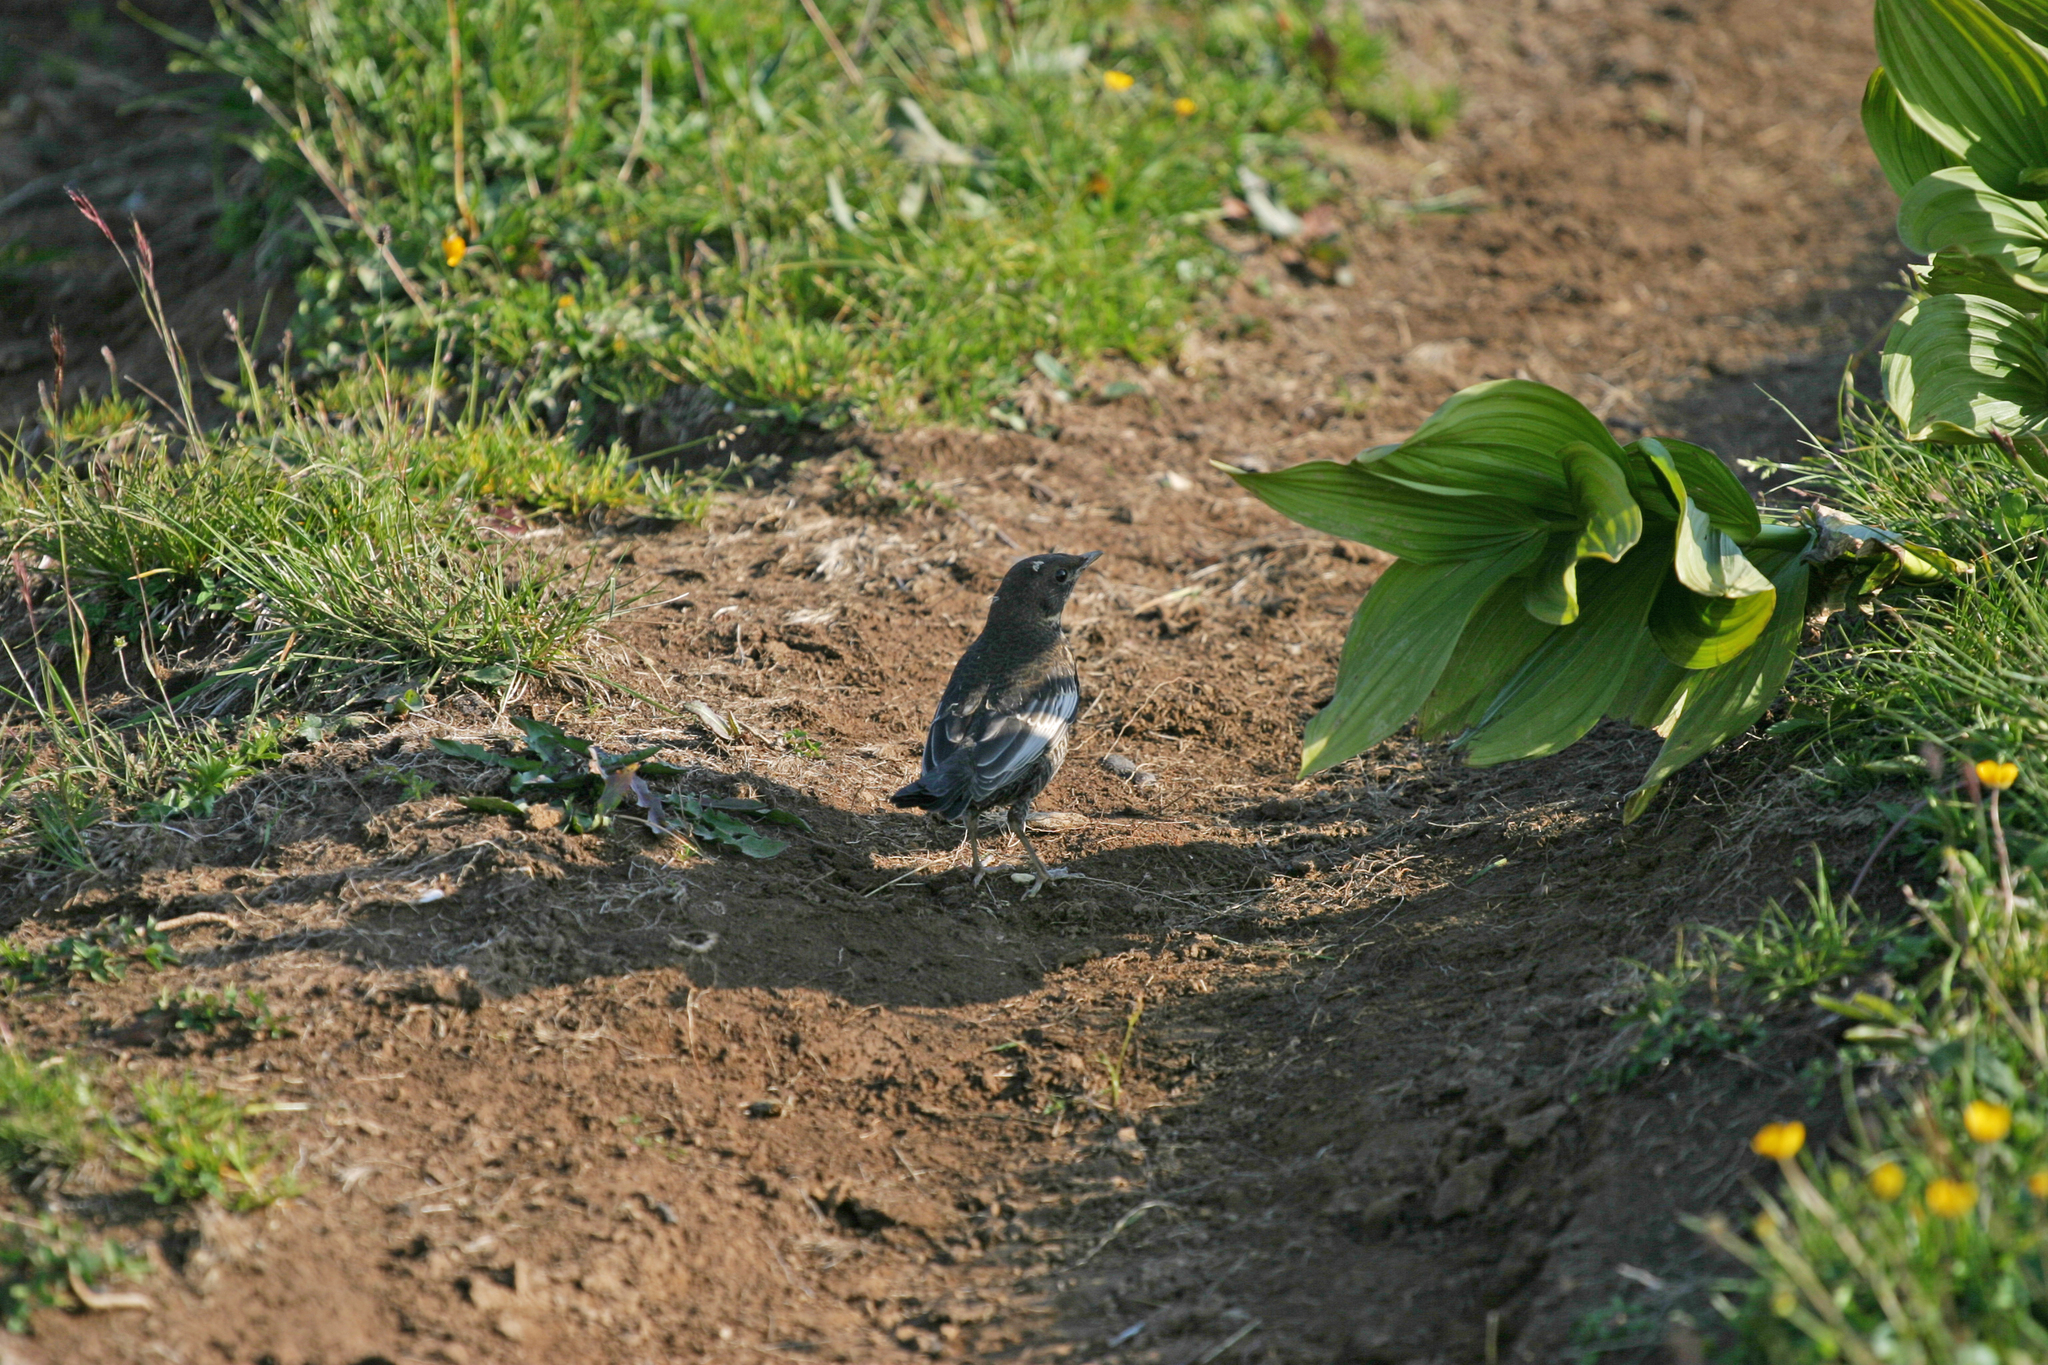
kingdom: Animalia
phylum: Chordata
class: Aves
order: Passeriformes
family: Turdidae
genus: Turdus
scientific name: Turdus torquatus
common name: Ring ouzel
